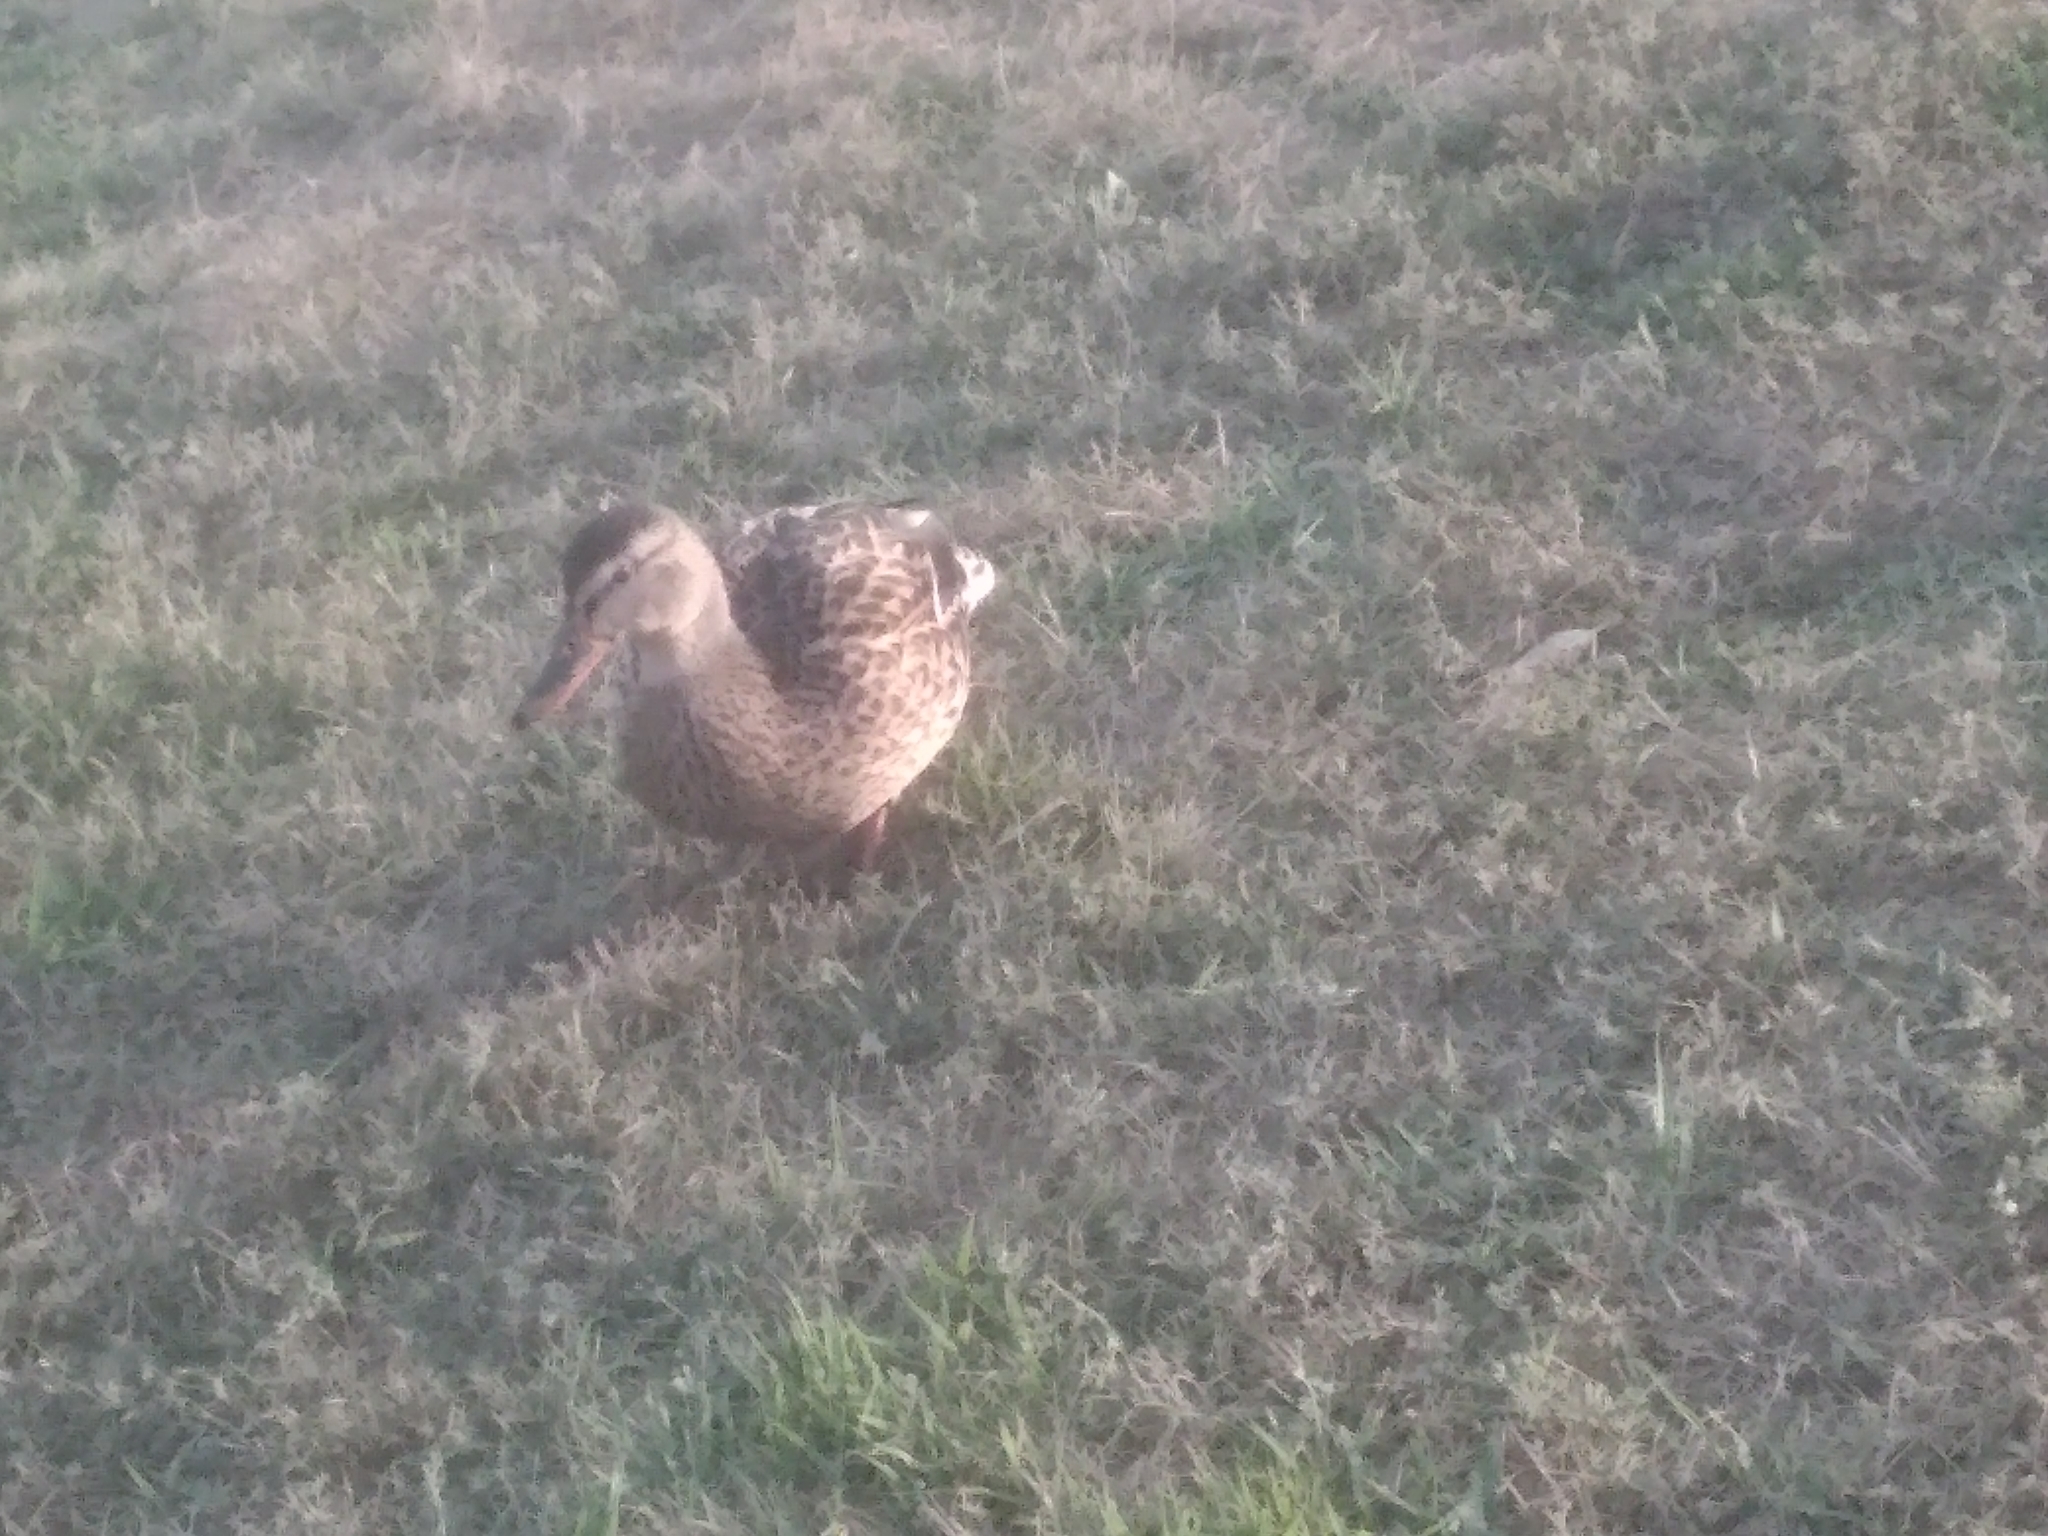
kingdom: Animalia
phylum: Chordata
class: Aves
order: Anseriformes
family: Anatidae
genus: Anas
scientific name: Anas platyrhynchos
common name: Mallard
